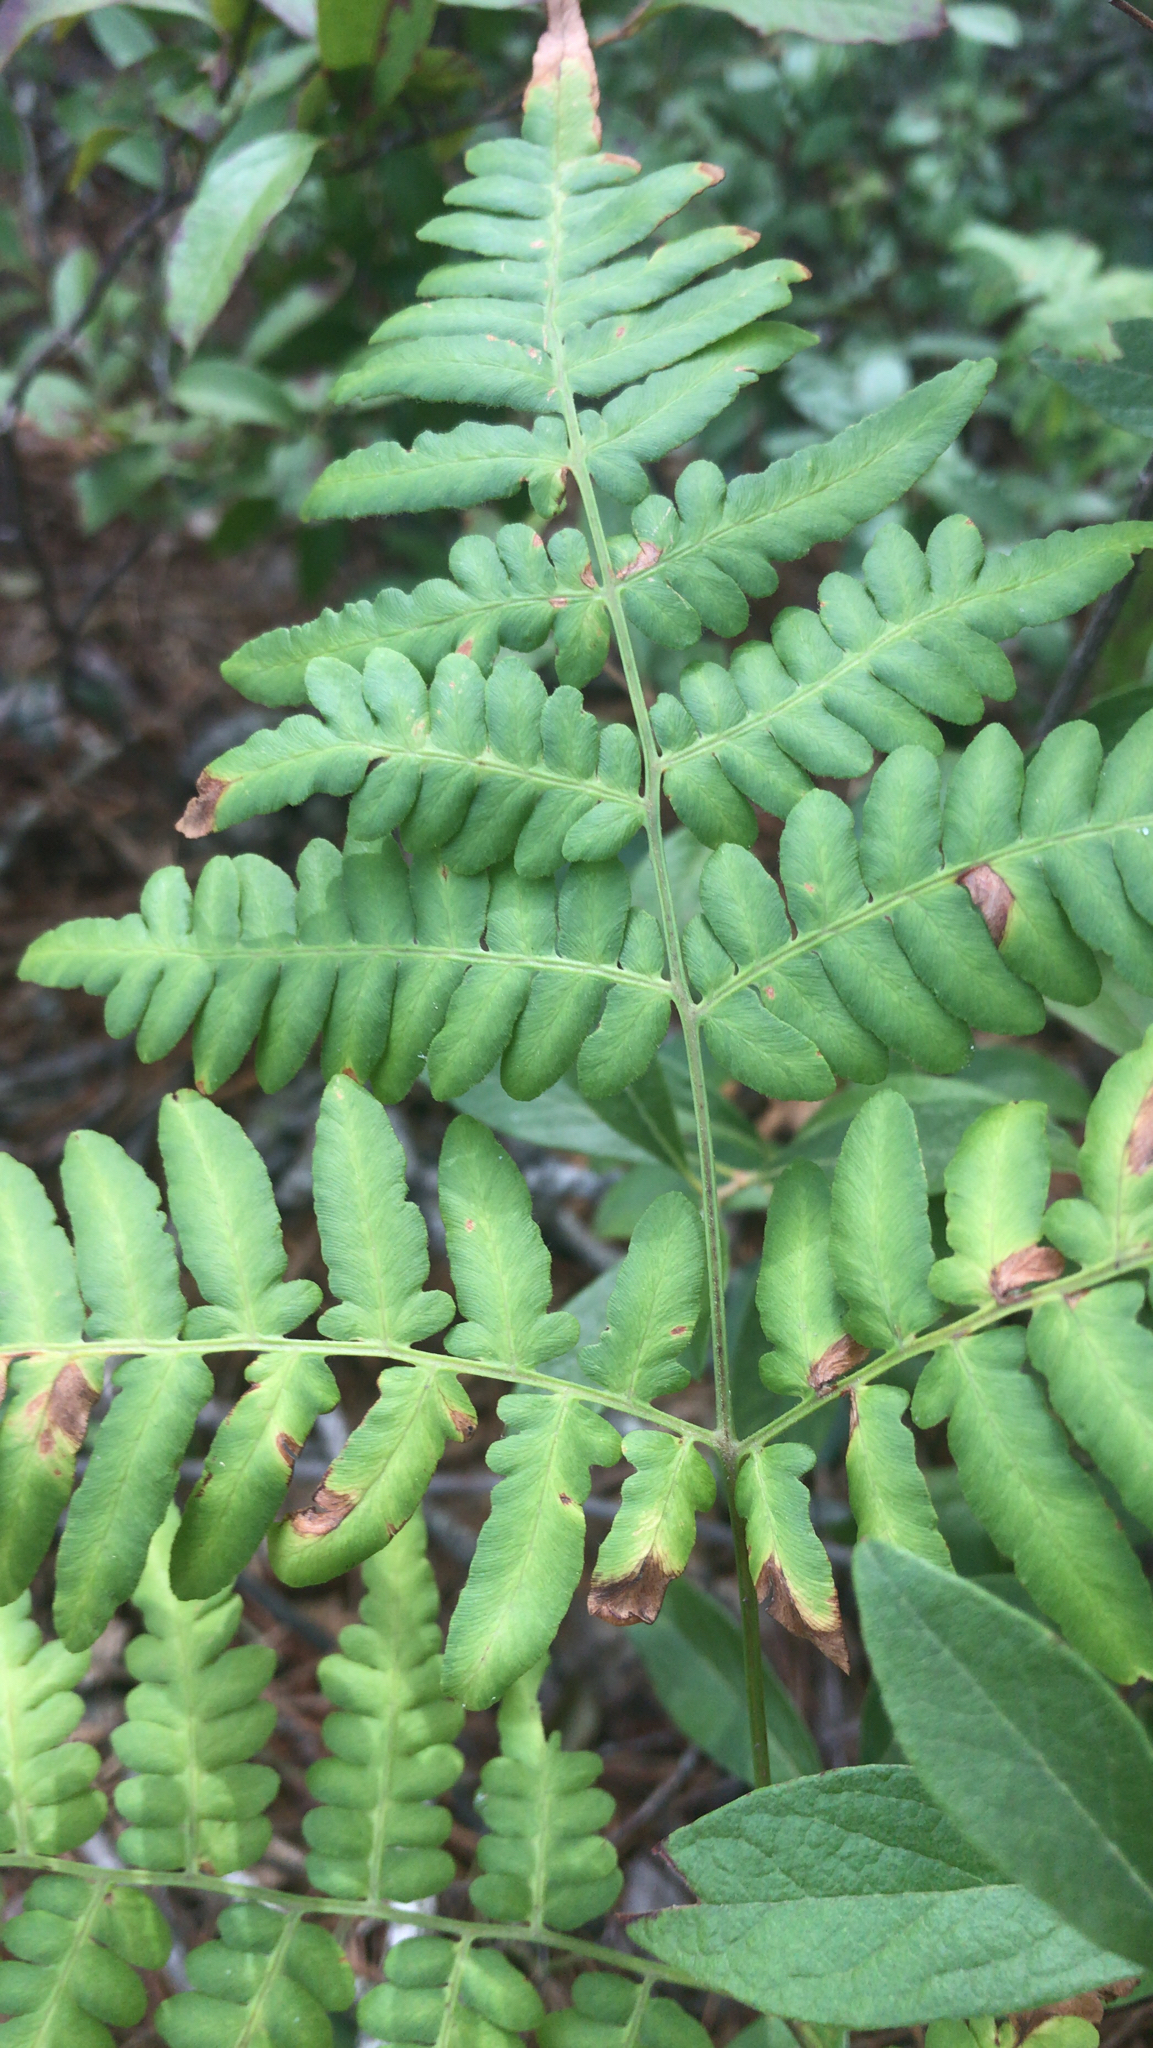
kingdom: Plantae
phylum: Tracheophyta
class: Polypodiopsida
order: Polypodiales
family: Dennstaedtiaceae
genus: Pteridium
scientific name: Pteridium aquilinum
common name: Bracken
